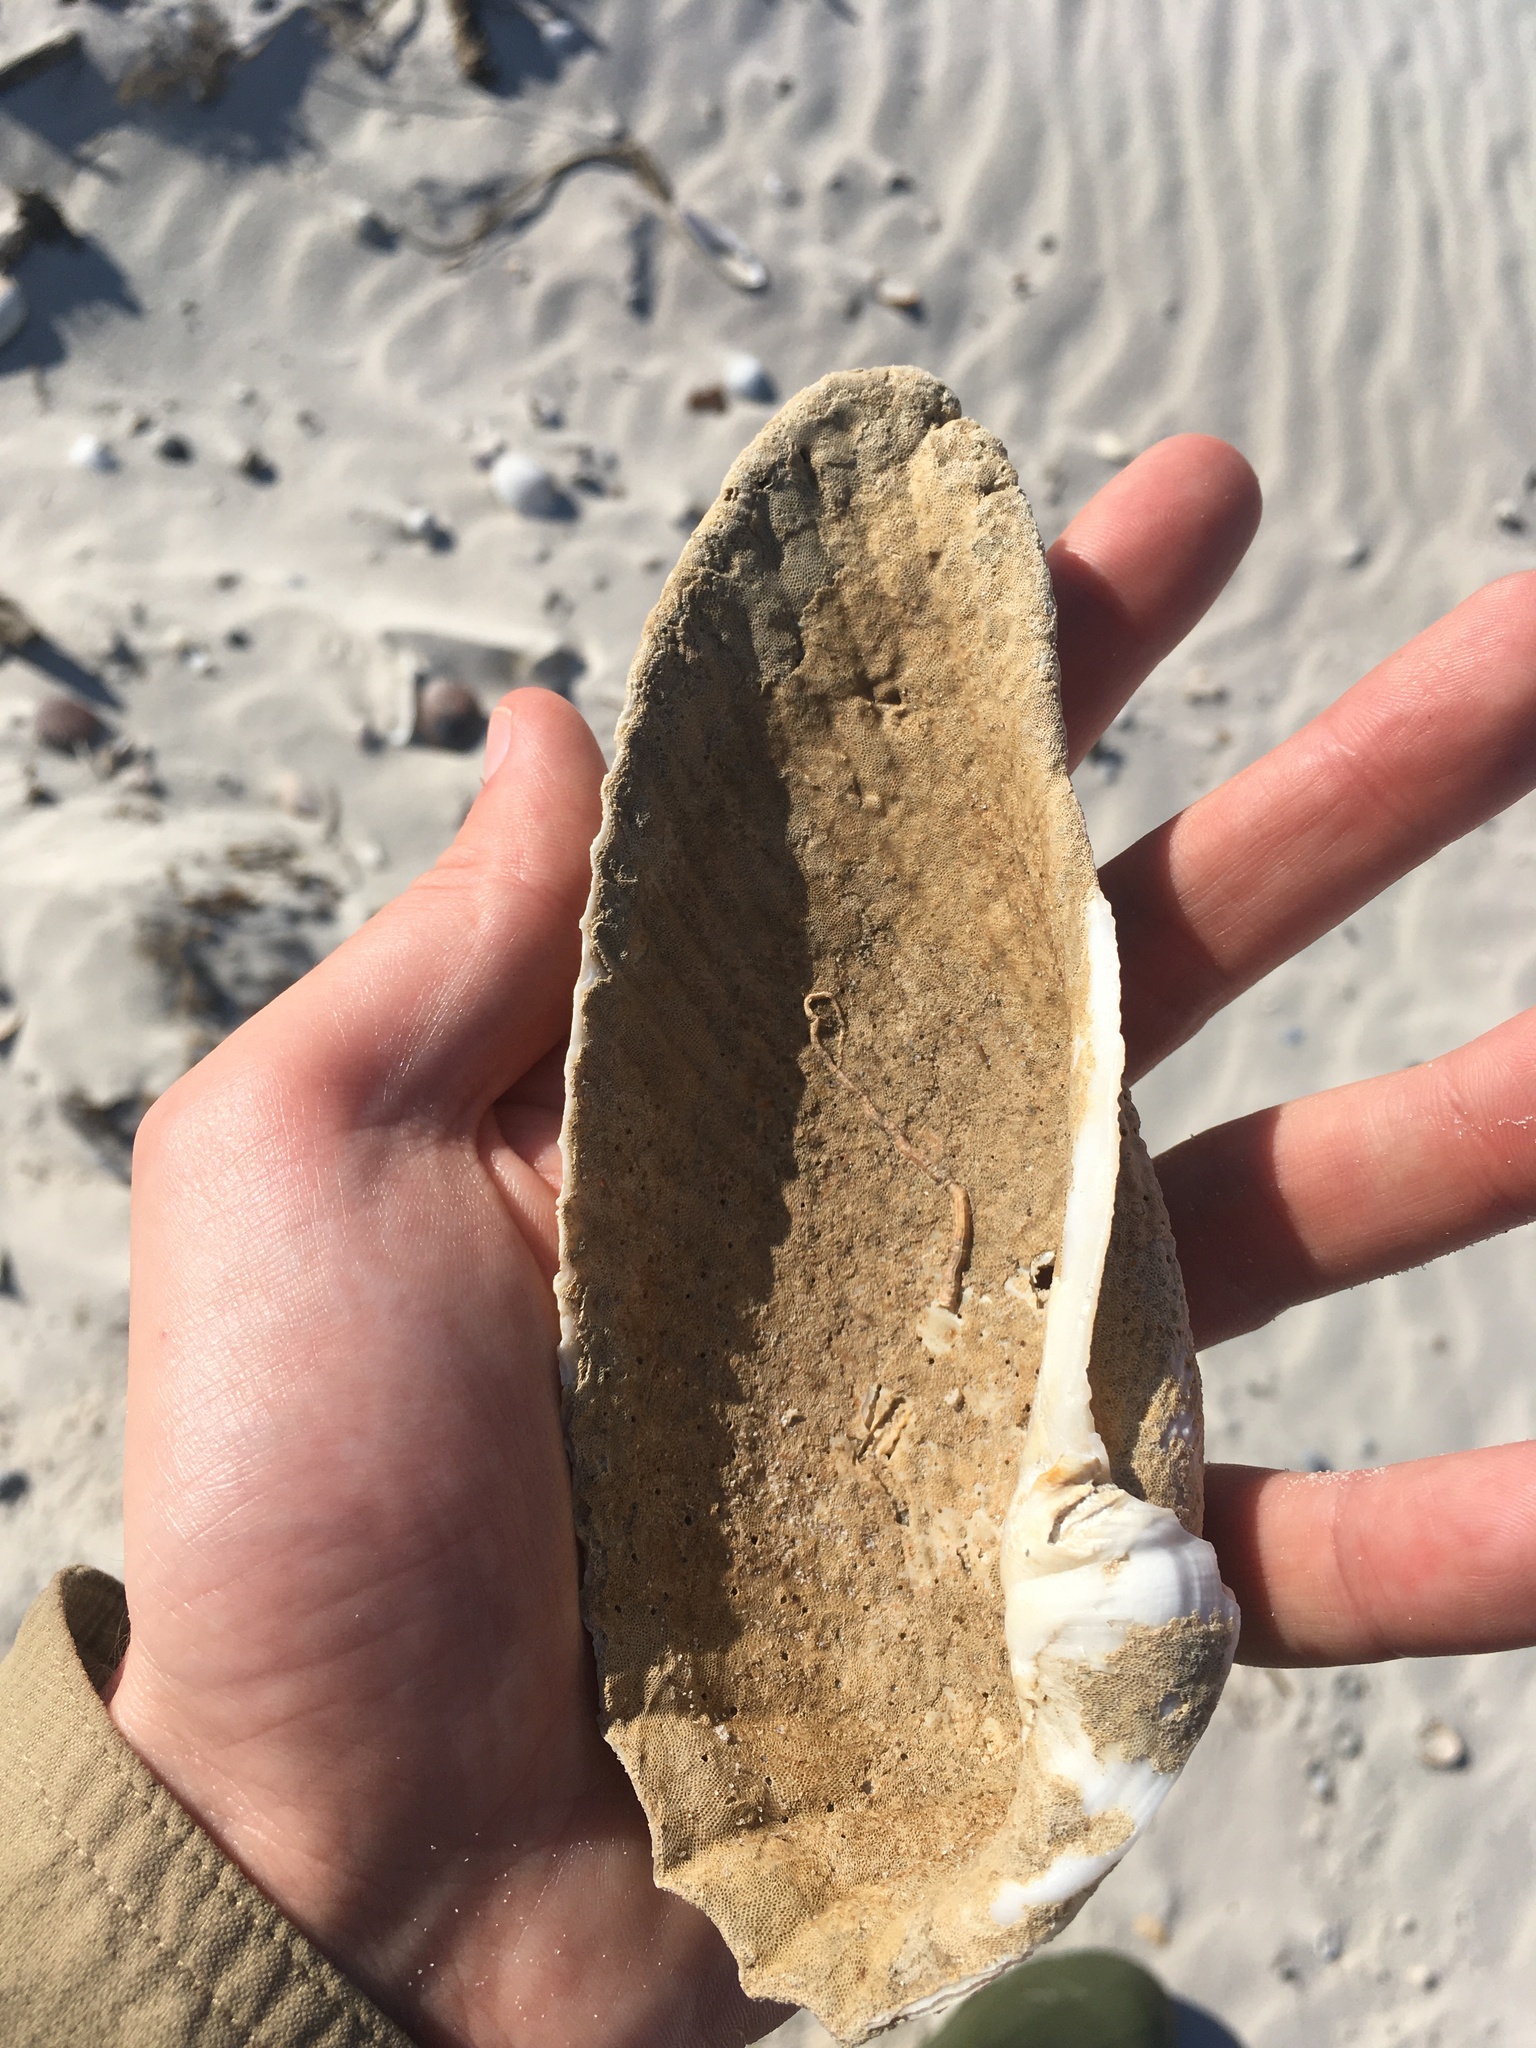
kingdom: Animalia
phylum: Mollusca
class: Bivalvia
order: Myida
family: Pholadidae
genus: Cyrtopleura
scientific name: Cyrtopleura costata
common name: Angel wing
